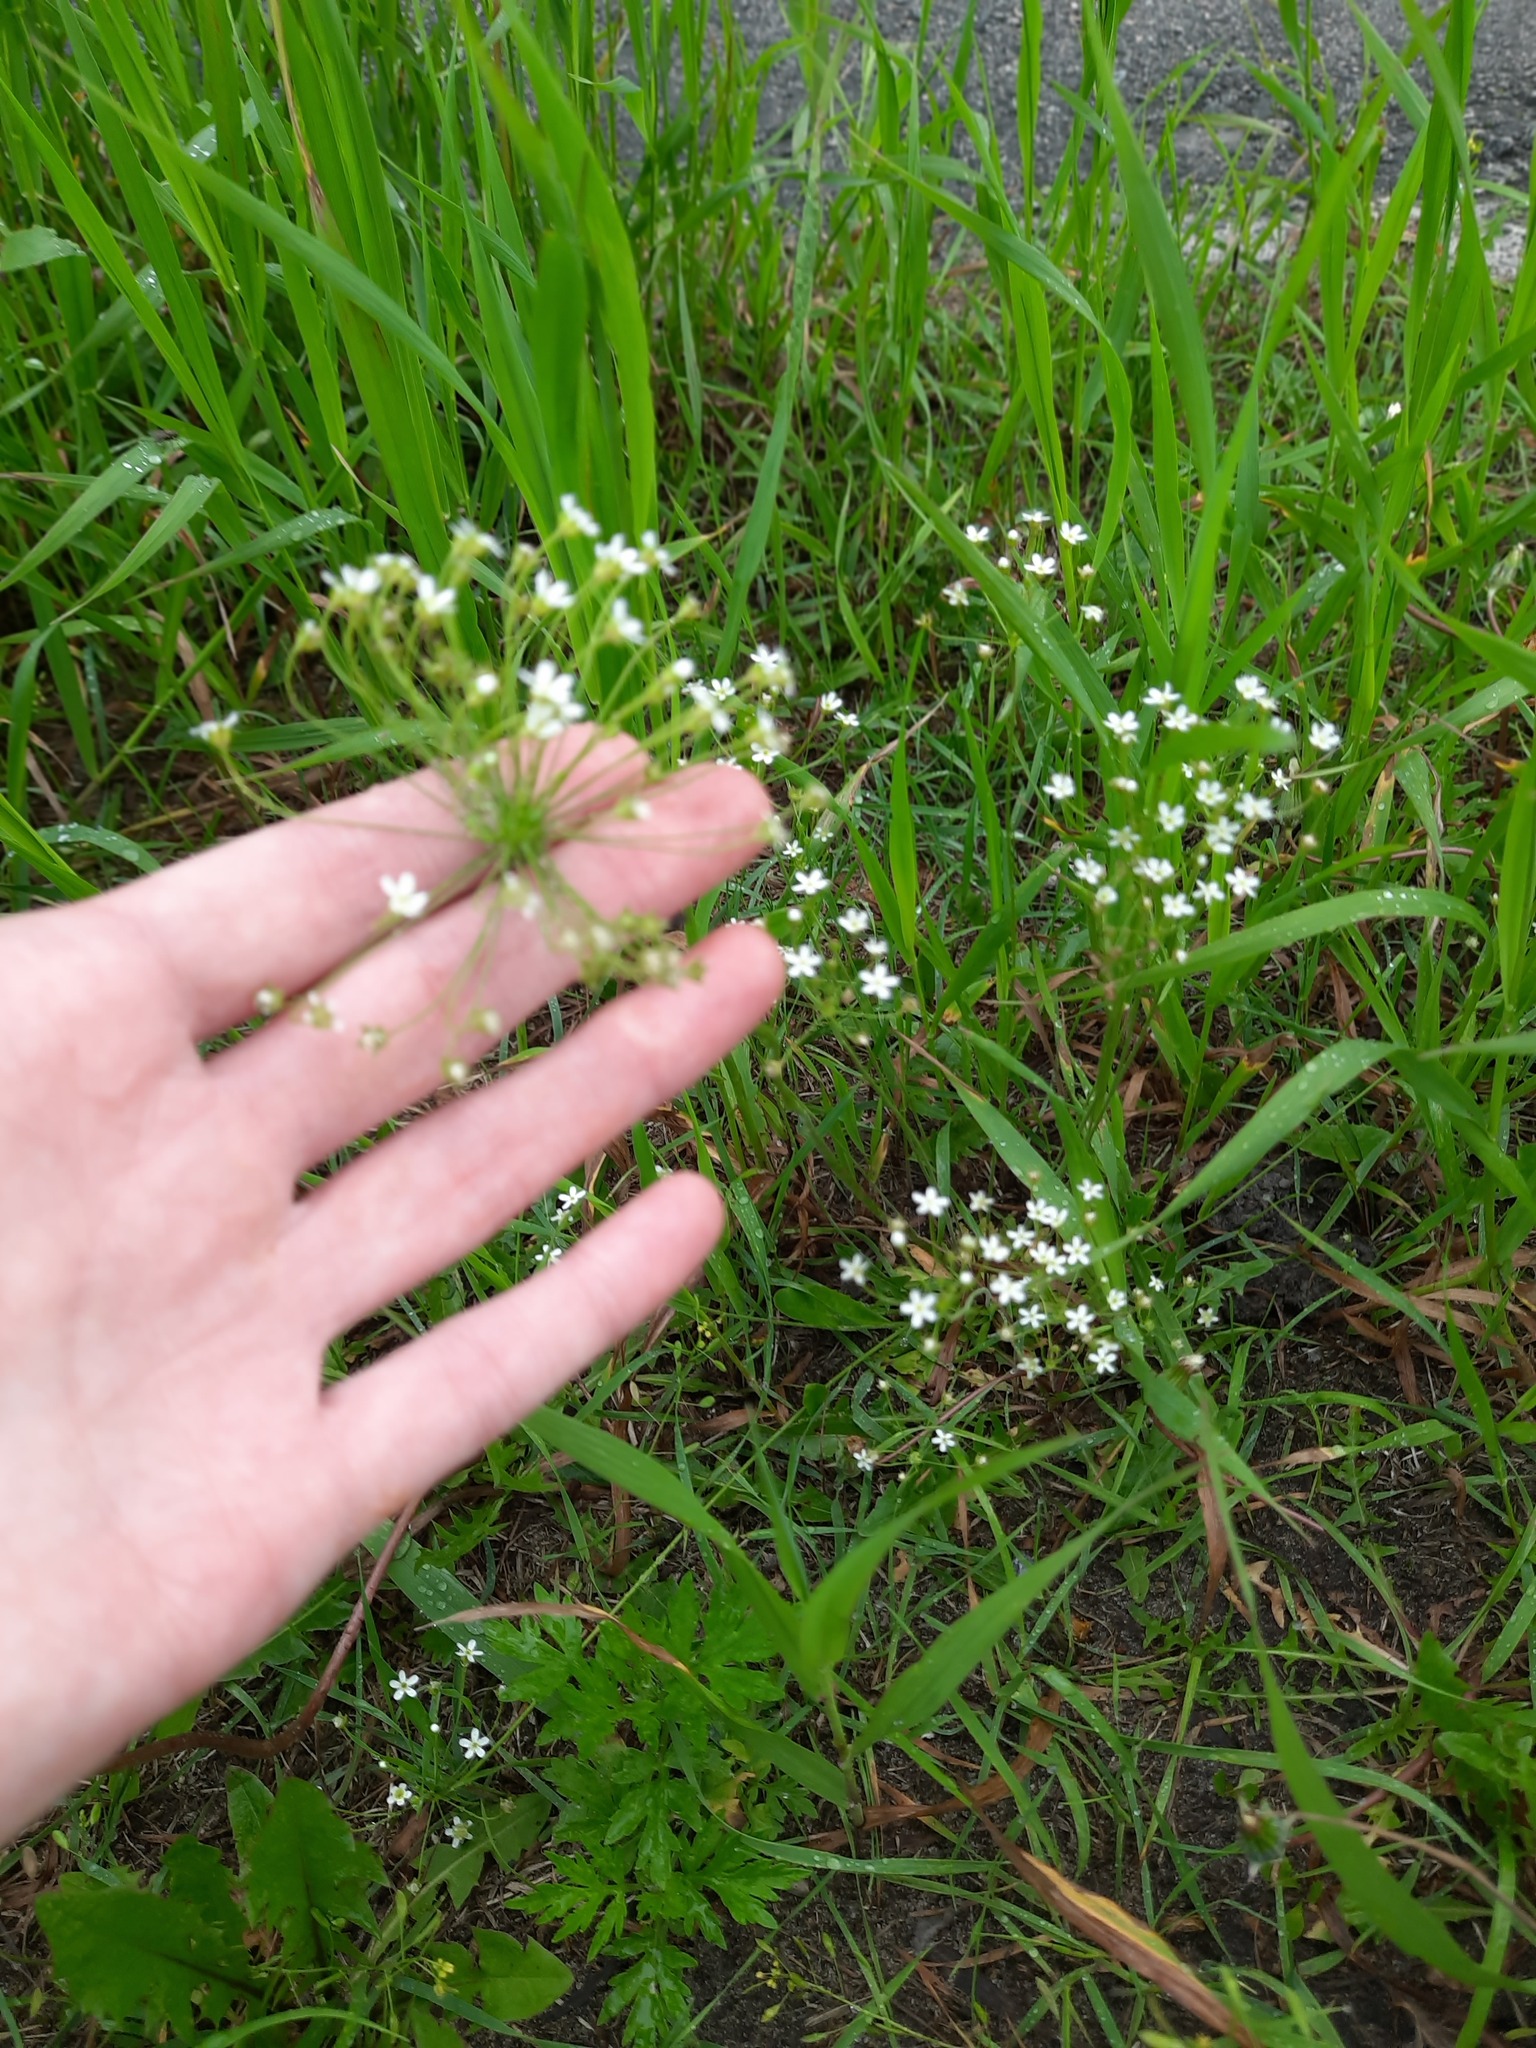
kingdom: Plantae
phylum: Tracheophyta
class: Magnoliopsida
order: Ericales
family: Primulaceae
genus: Androsace
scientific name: Androsace septentrionalis
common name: Hairy northern fairy-candelabra
